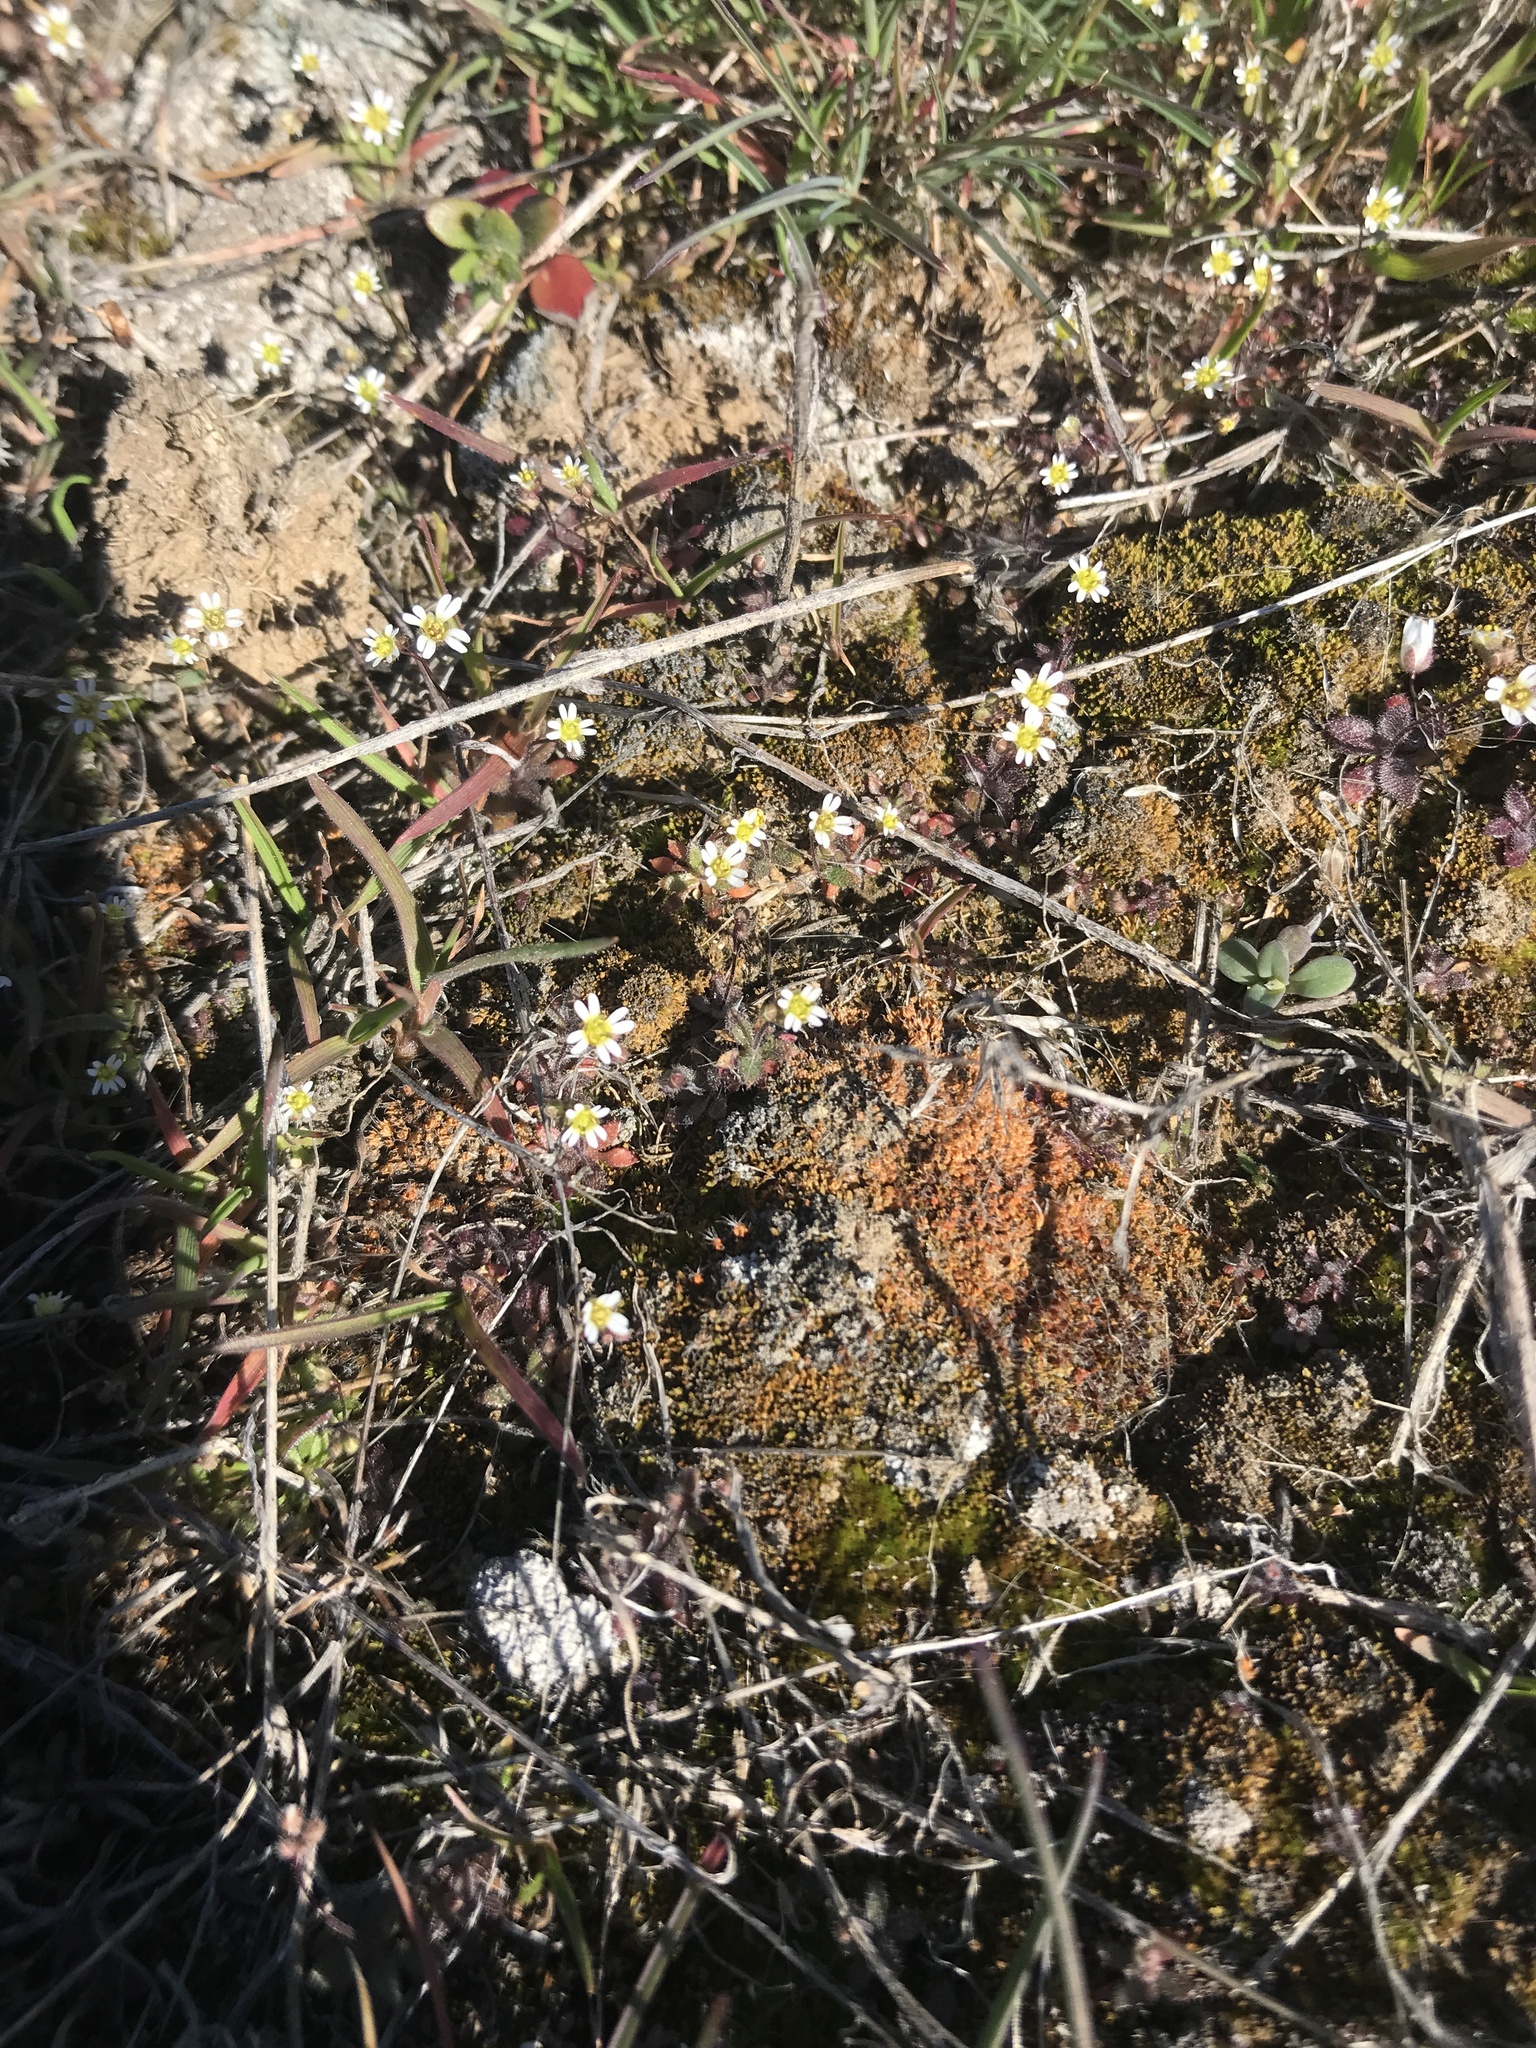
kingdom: Plantae
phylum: Tracheophyta
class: Magnoliopsida
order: Brassicales
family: Brassicaceae
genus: Draba
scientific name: Draba verna
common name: Spring draba
